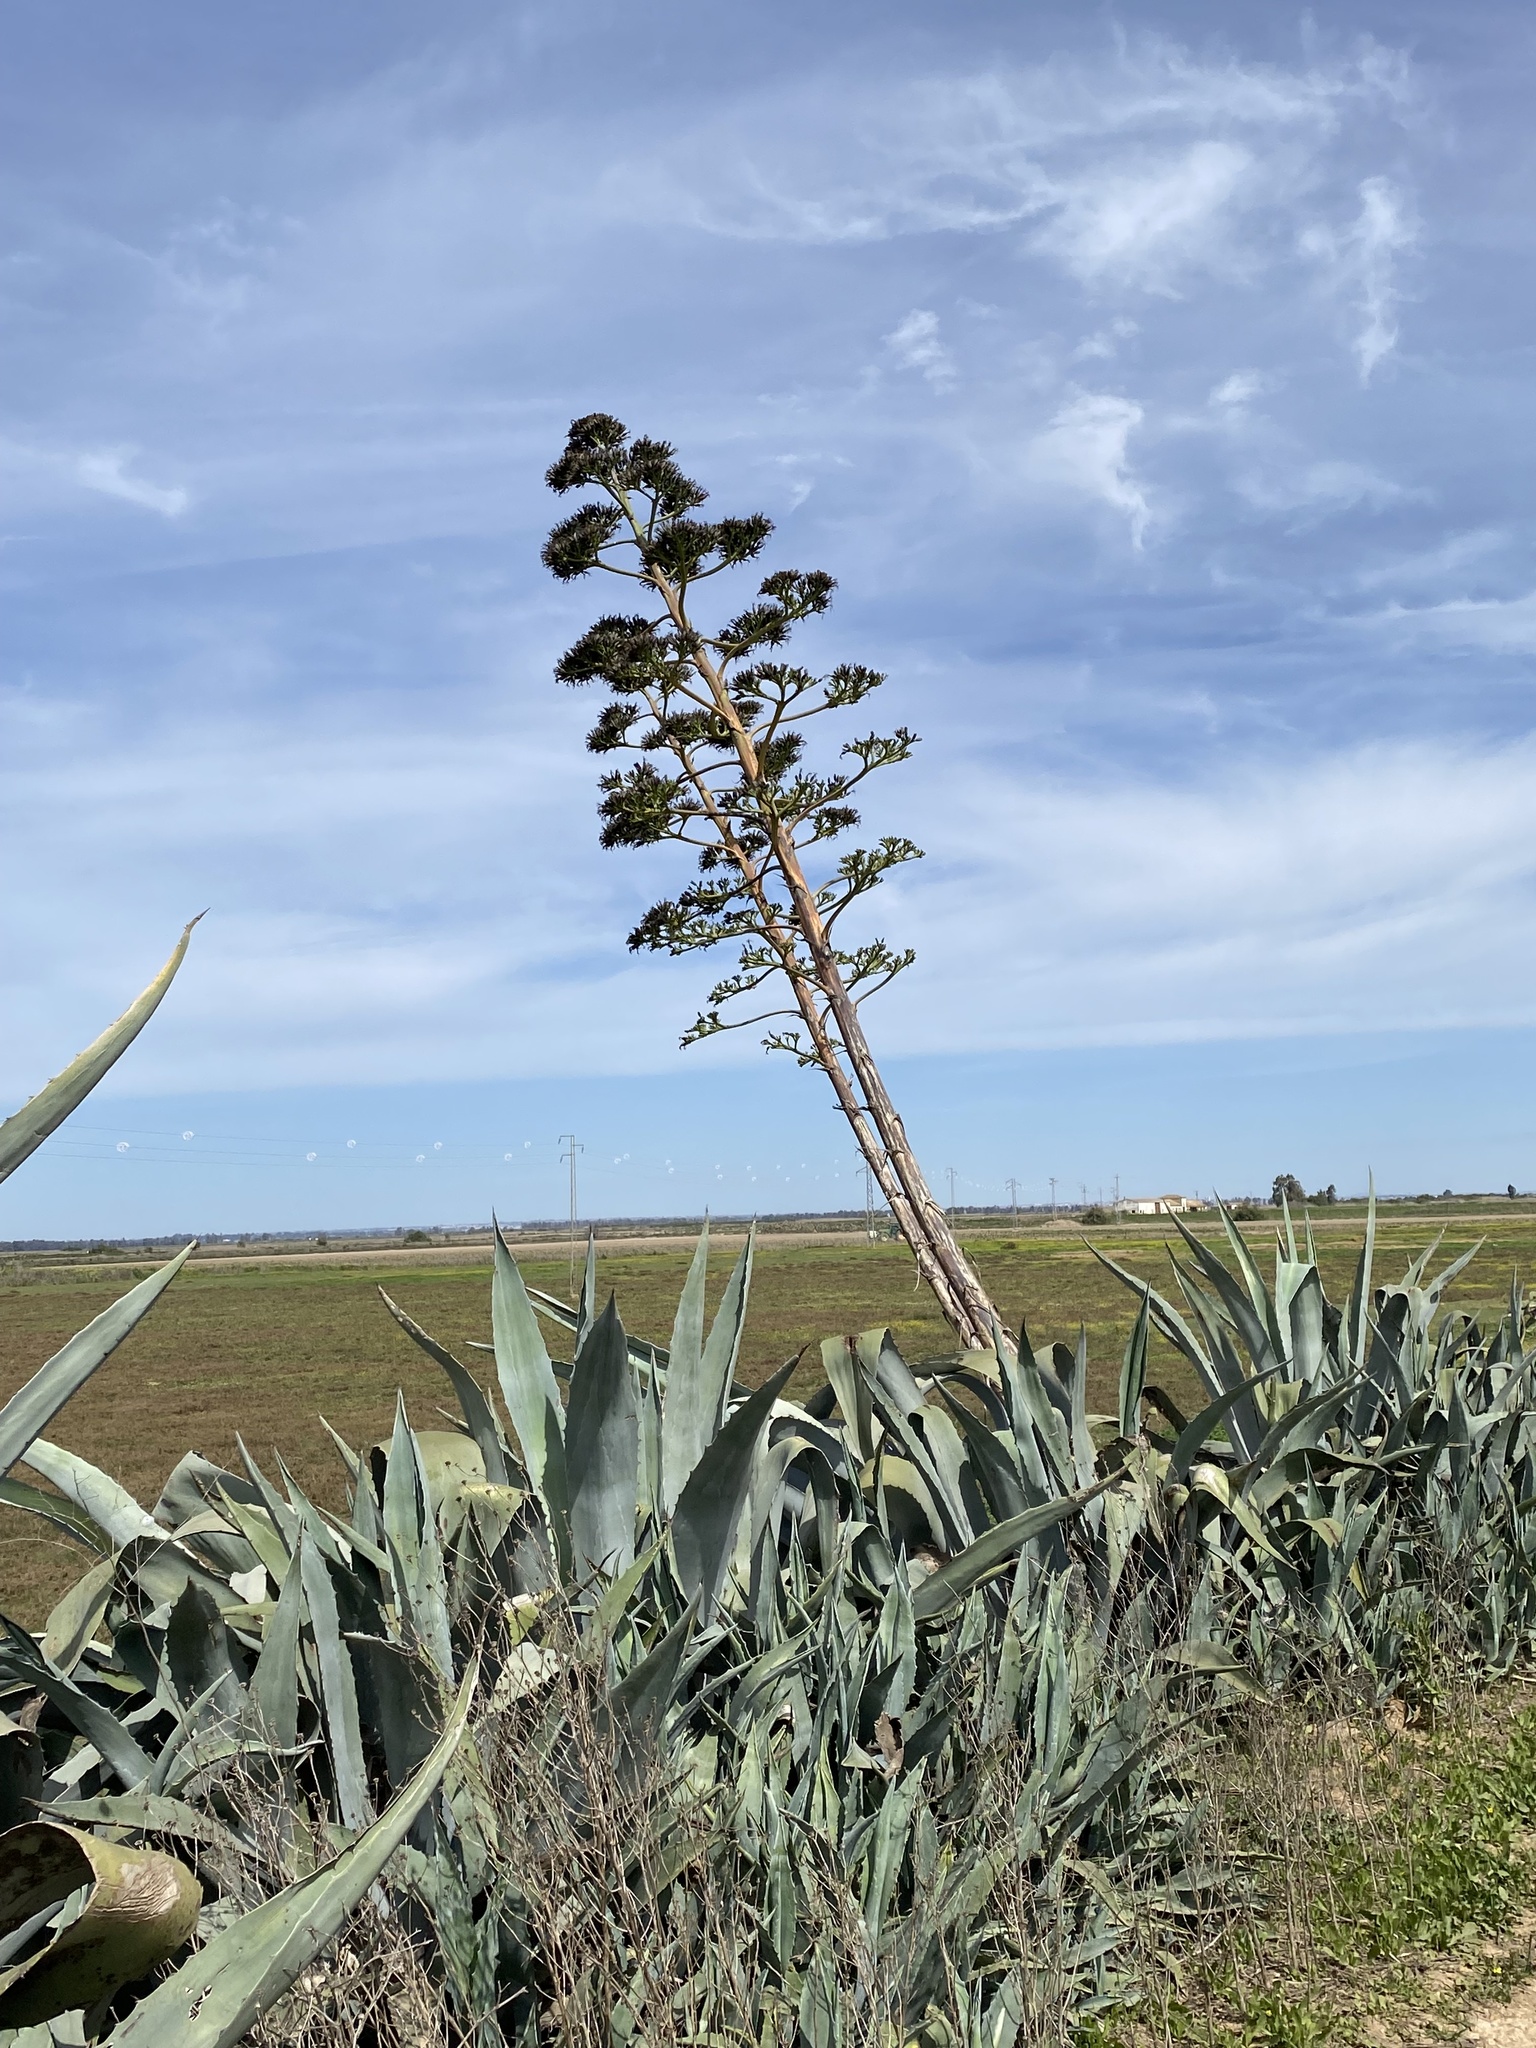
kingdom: Plantae
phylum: Tracheophyta
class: Liliopsida
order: Asparagales
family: Asparagaceae
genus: Agave
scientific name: Agave americana
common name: Centuryplant
